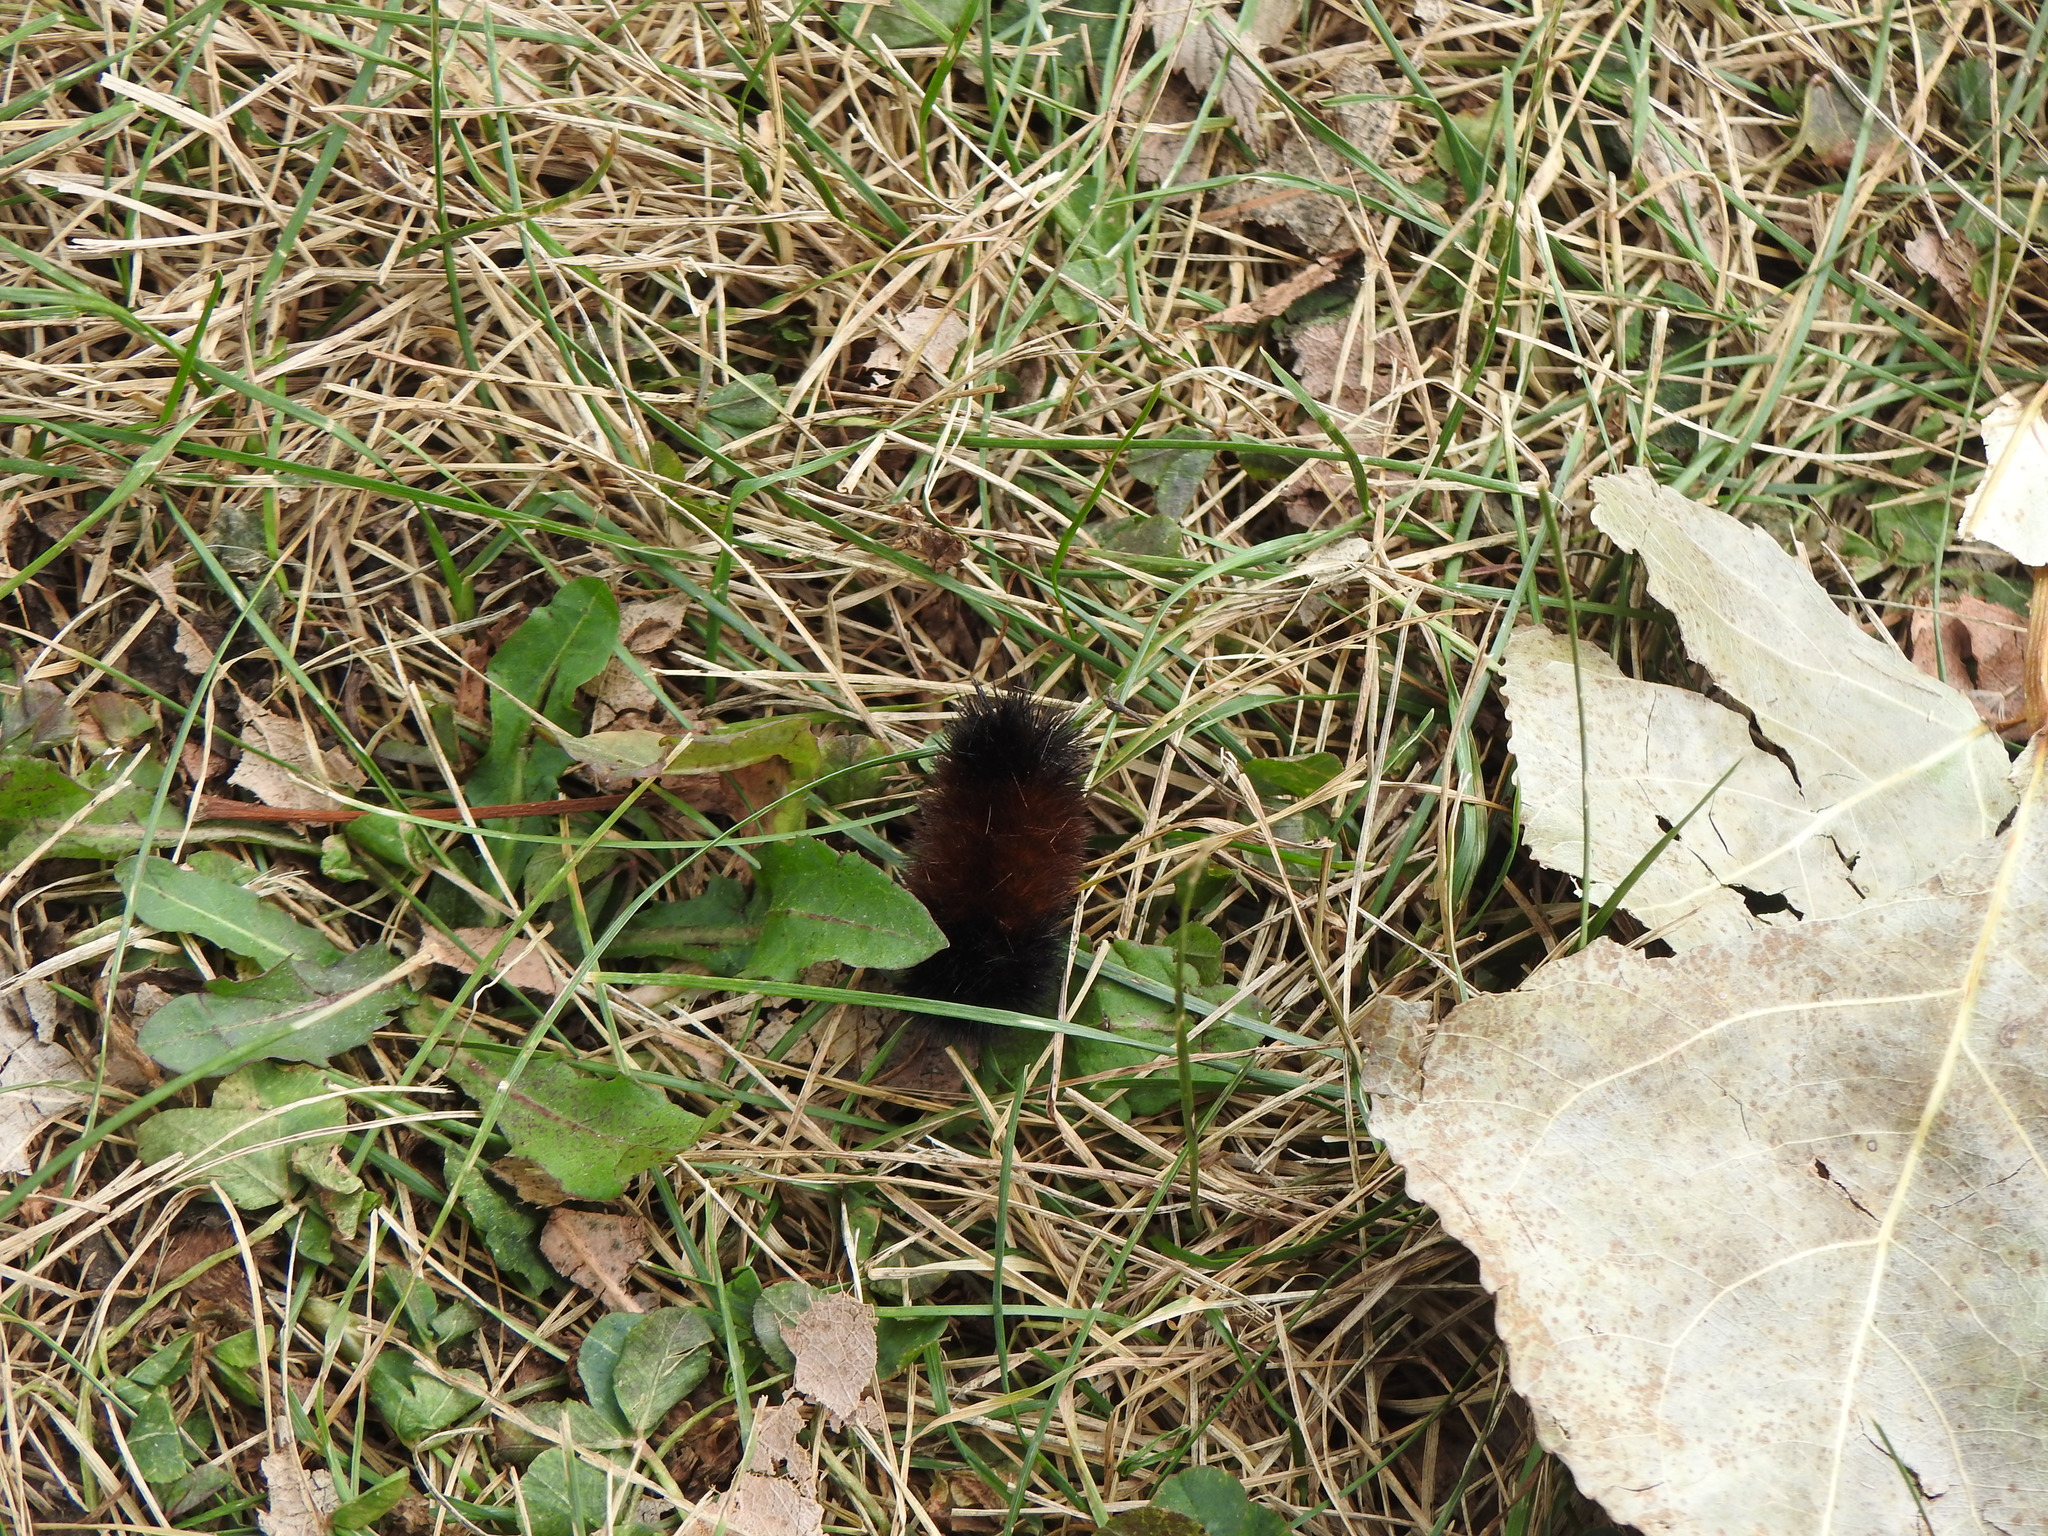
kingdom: Animalia
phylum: Arthropoda
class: Insecta
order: Lepidoptera
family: Erebidae
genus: Pyrrharctia
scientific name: Pyrrharctia isabella
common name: Isabella tiger moth
